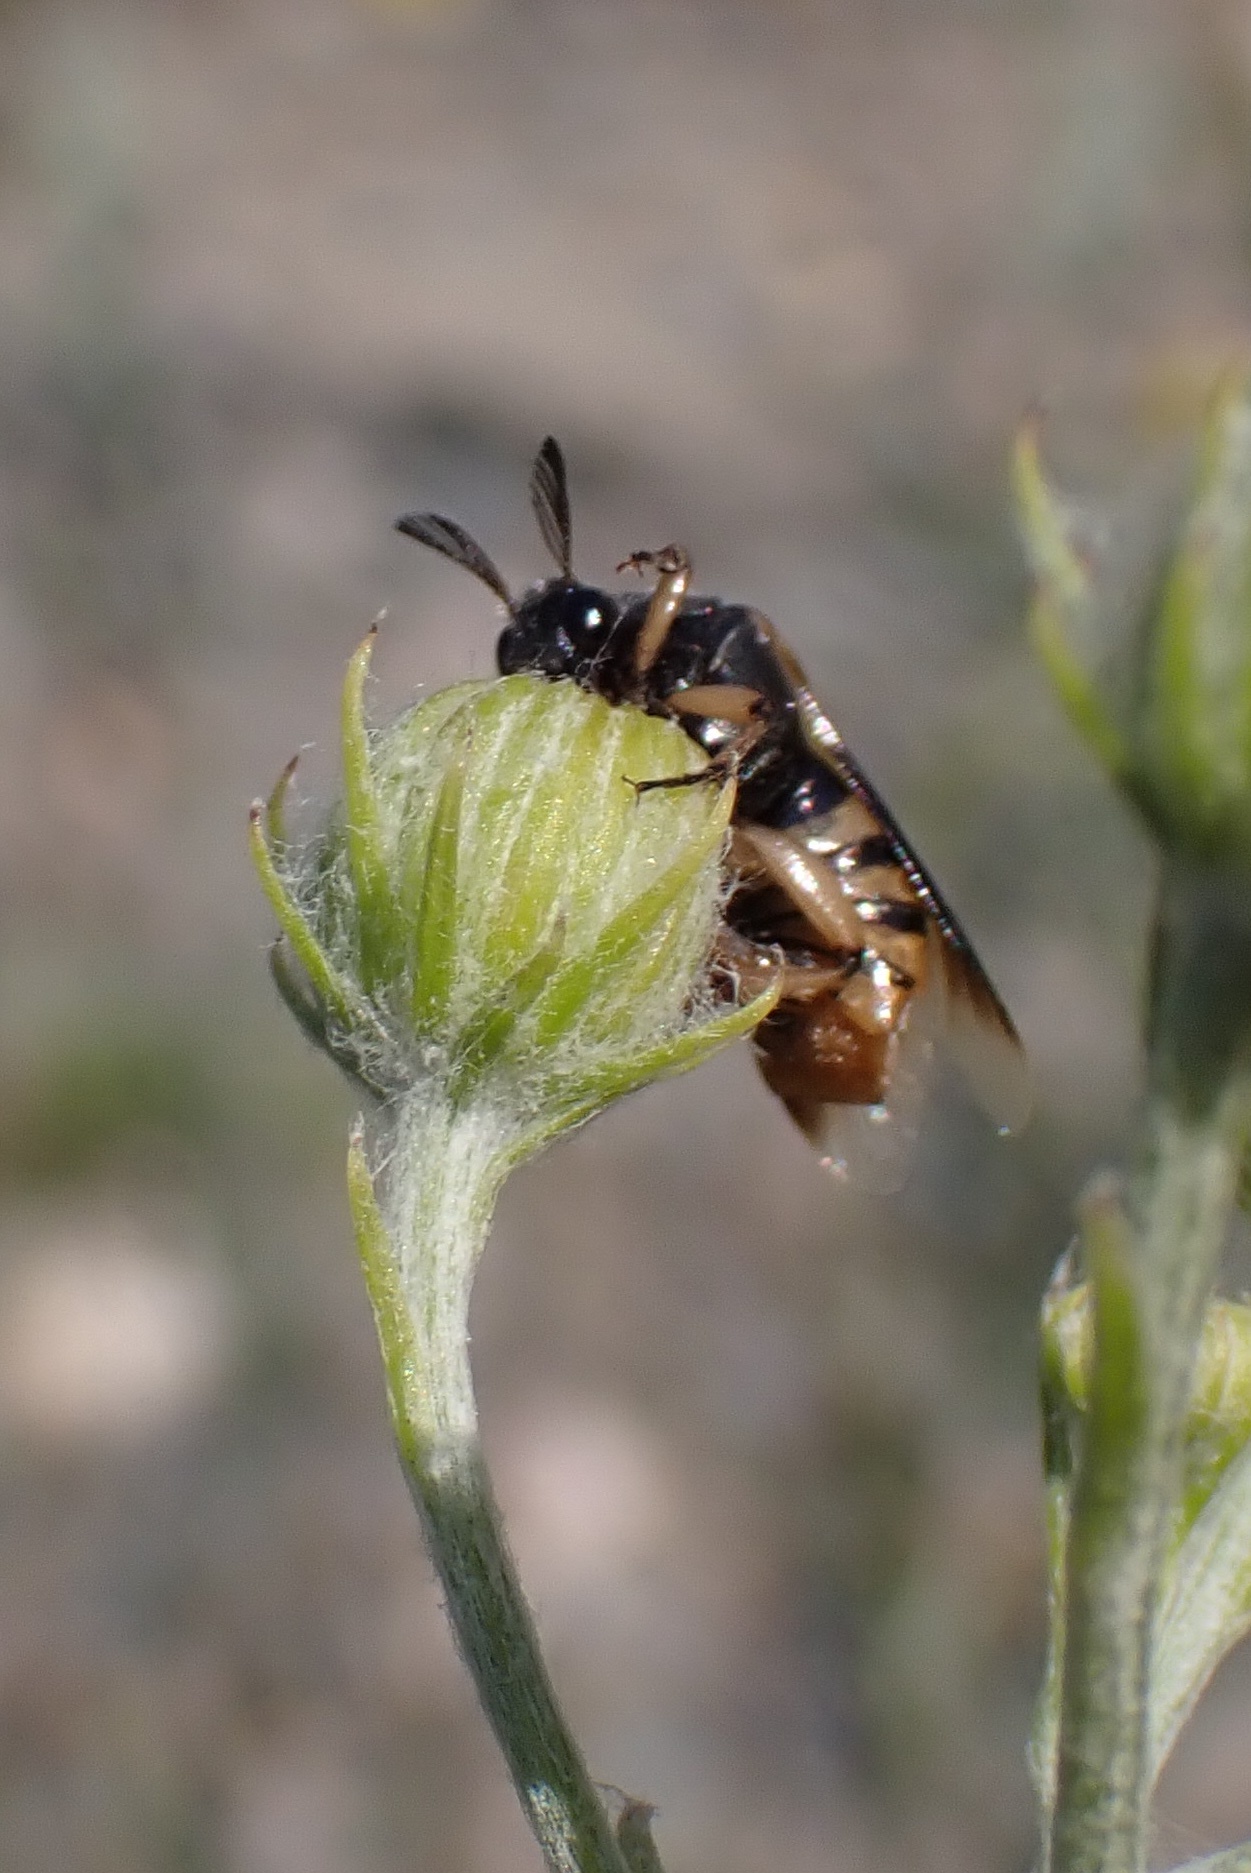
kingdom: Animalia
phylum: Arthropoda
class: Insecta
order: Coleoptera
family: Ripiphoridae
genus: Ripiphorus
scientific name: Ripiphorus
